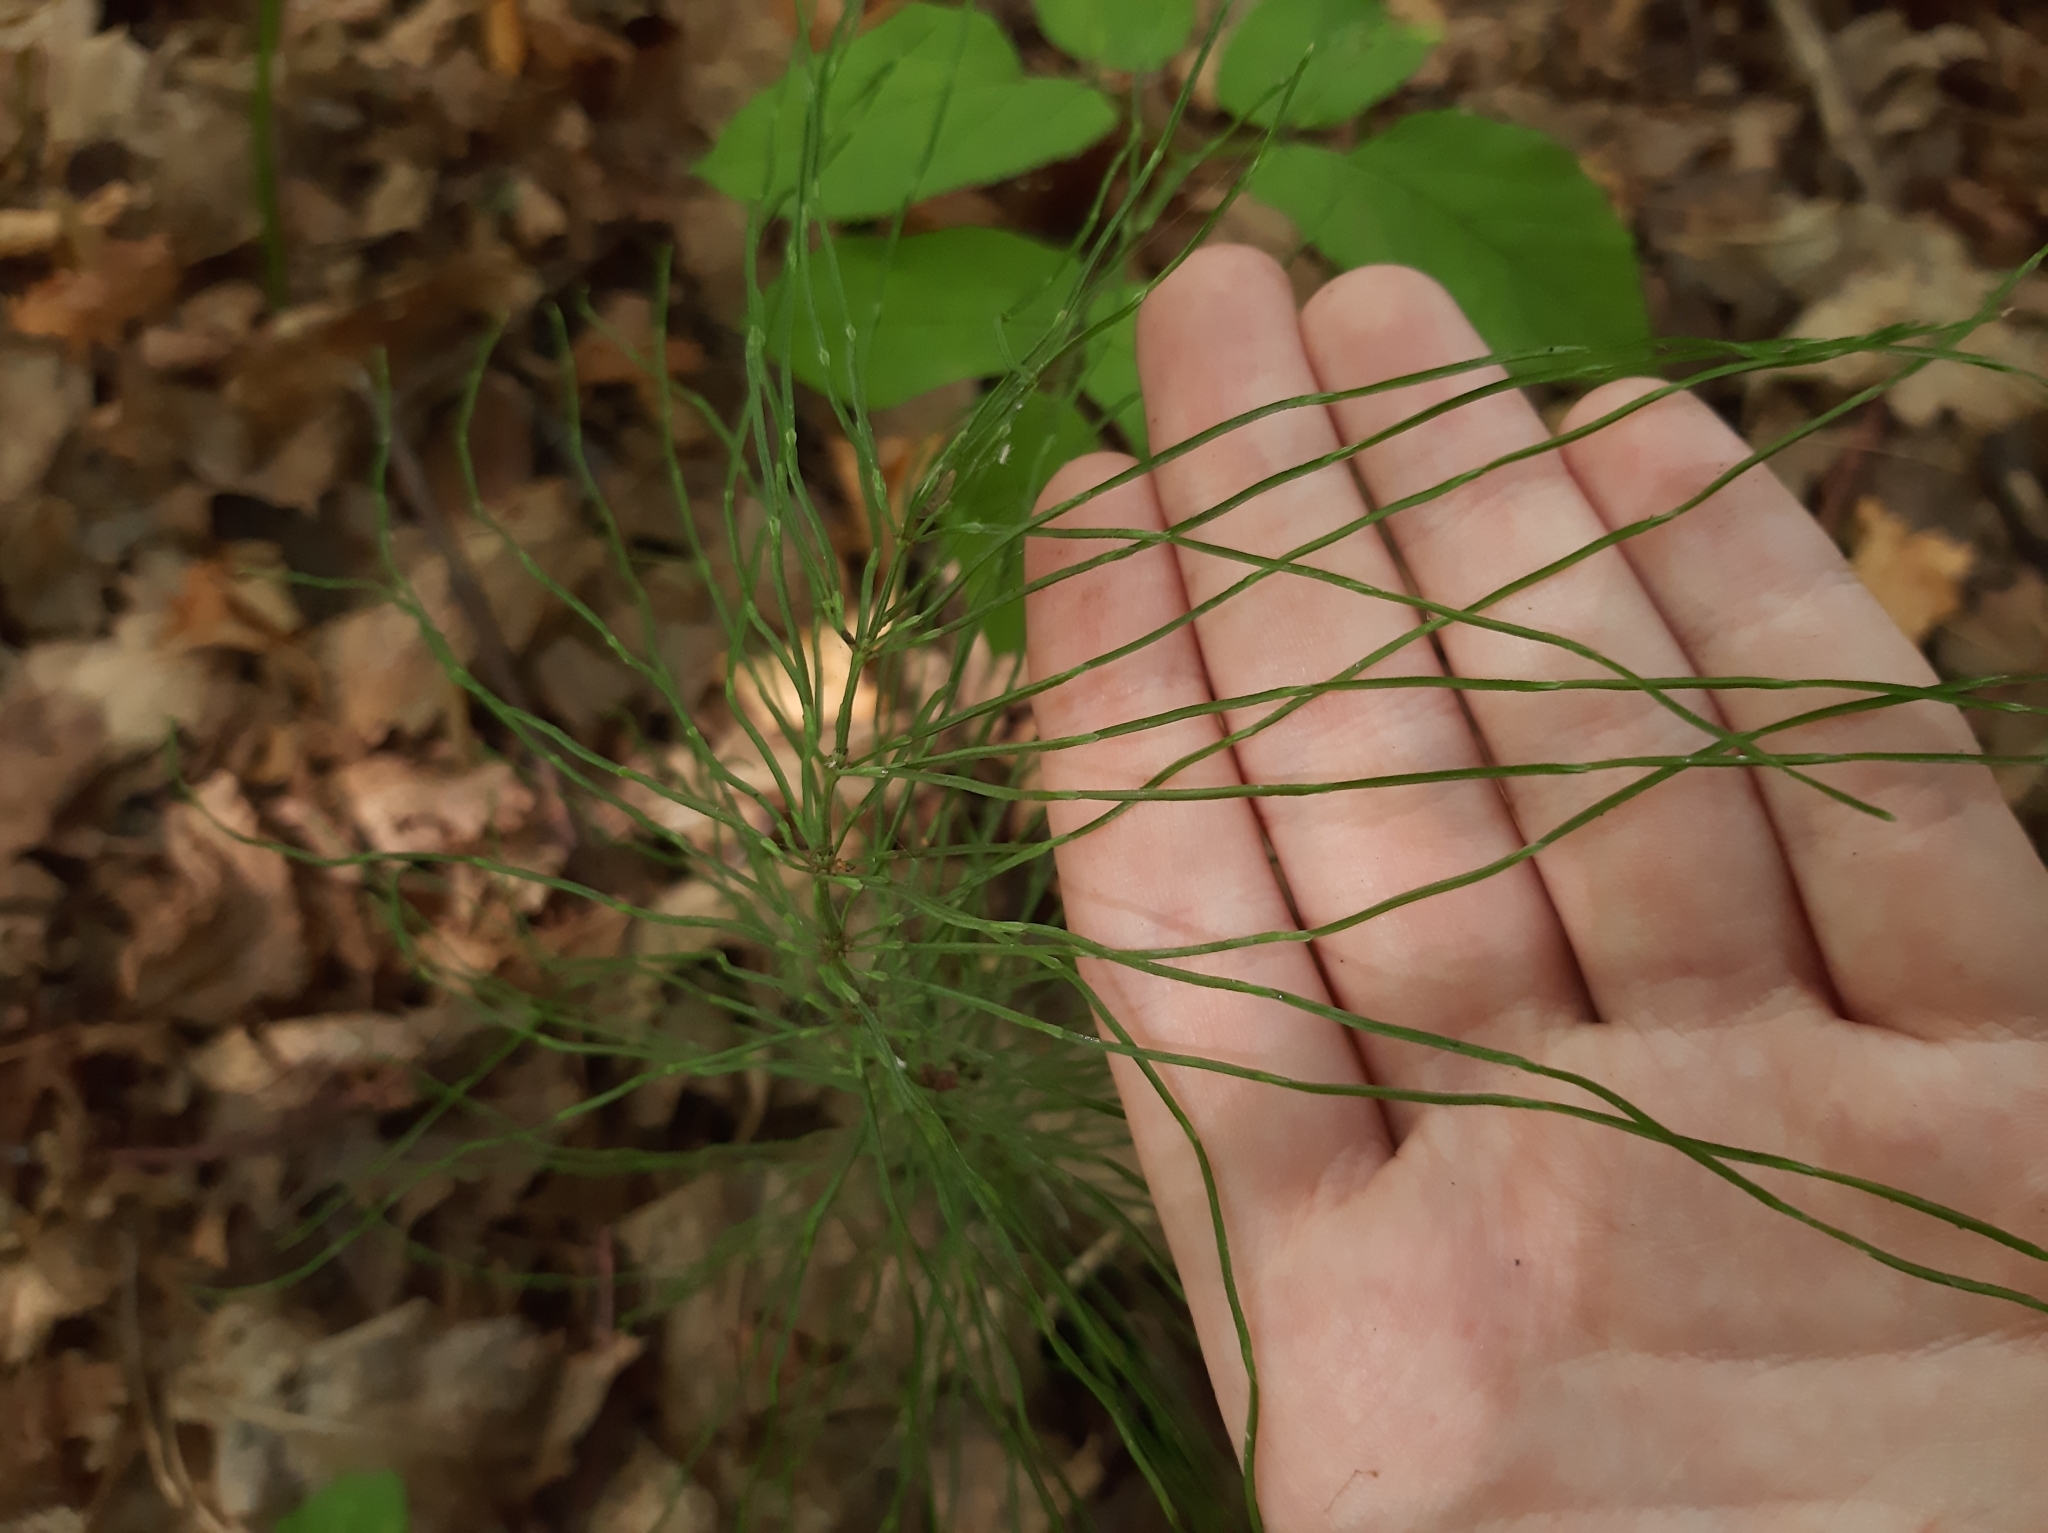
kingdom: Plantae
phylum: Tracheophyta
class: Polypodiopsida
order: Equisetales
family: Equisetaceae
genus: Equisetum
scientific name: Equisetum pratense
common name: Meadow horsetail
